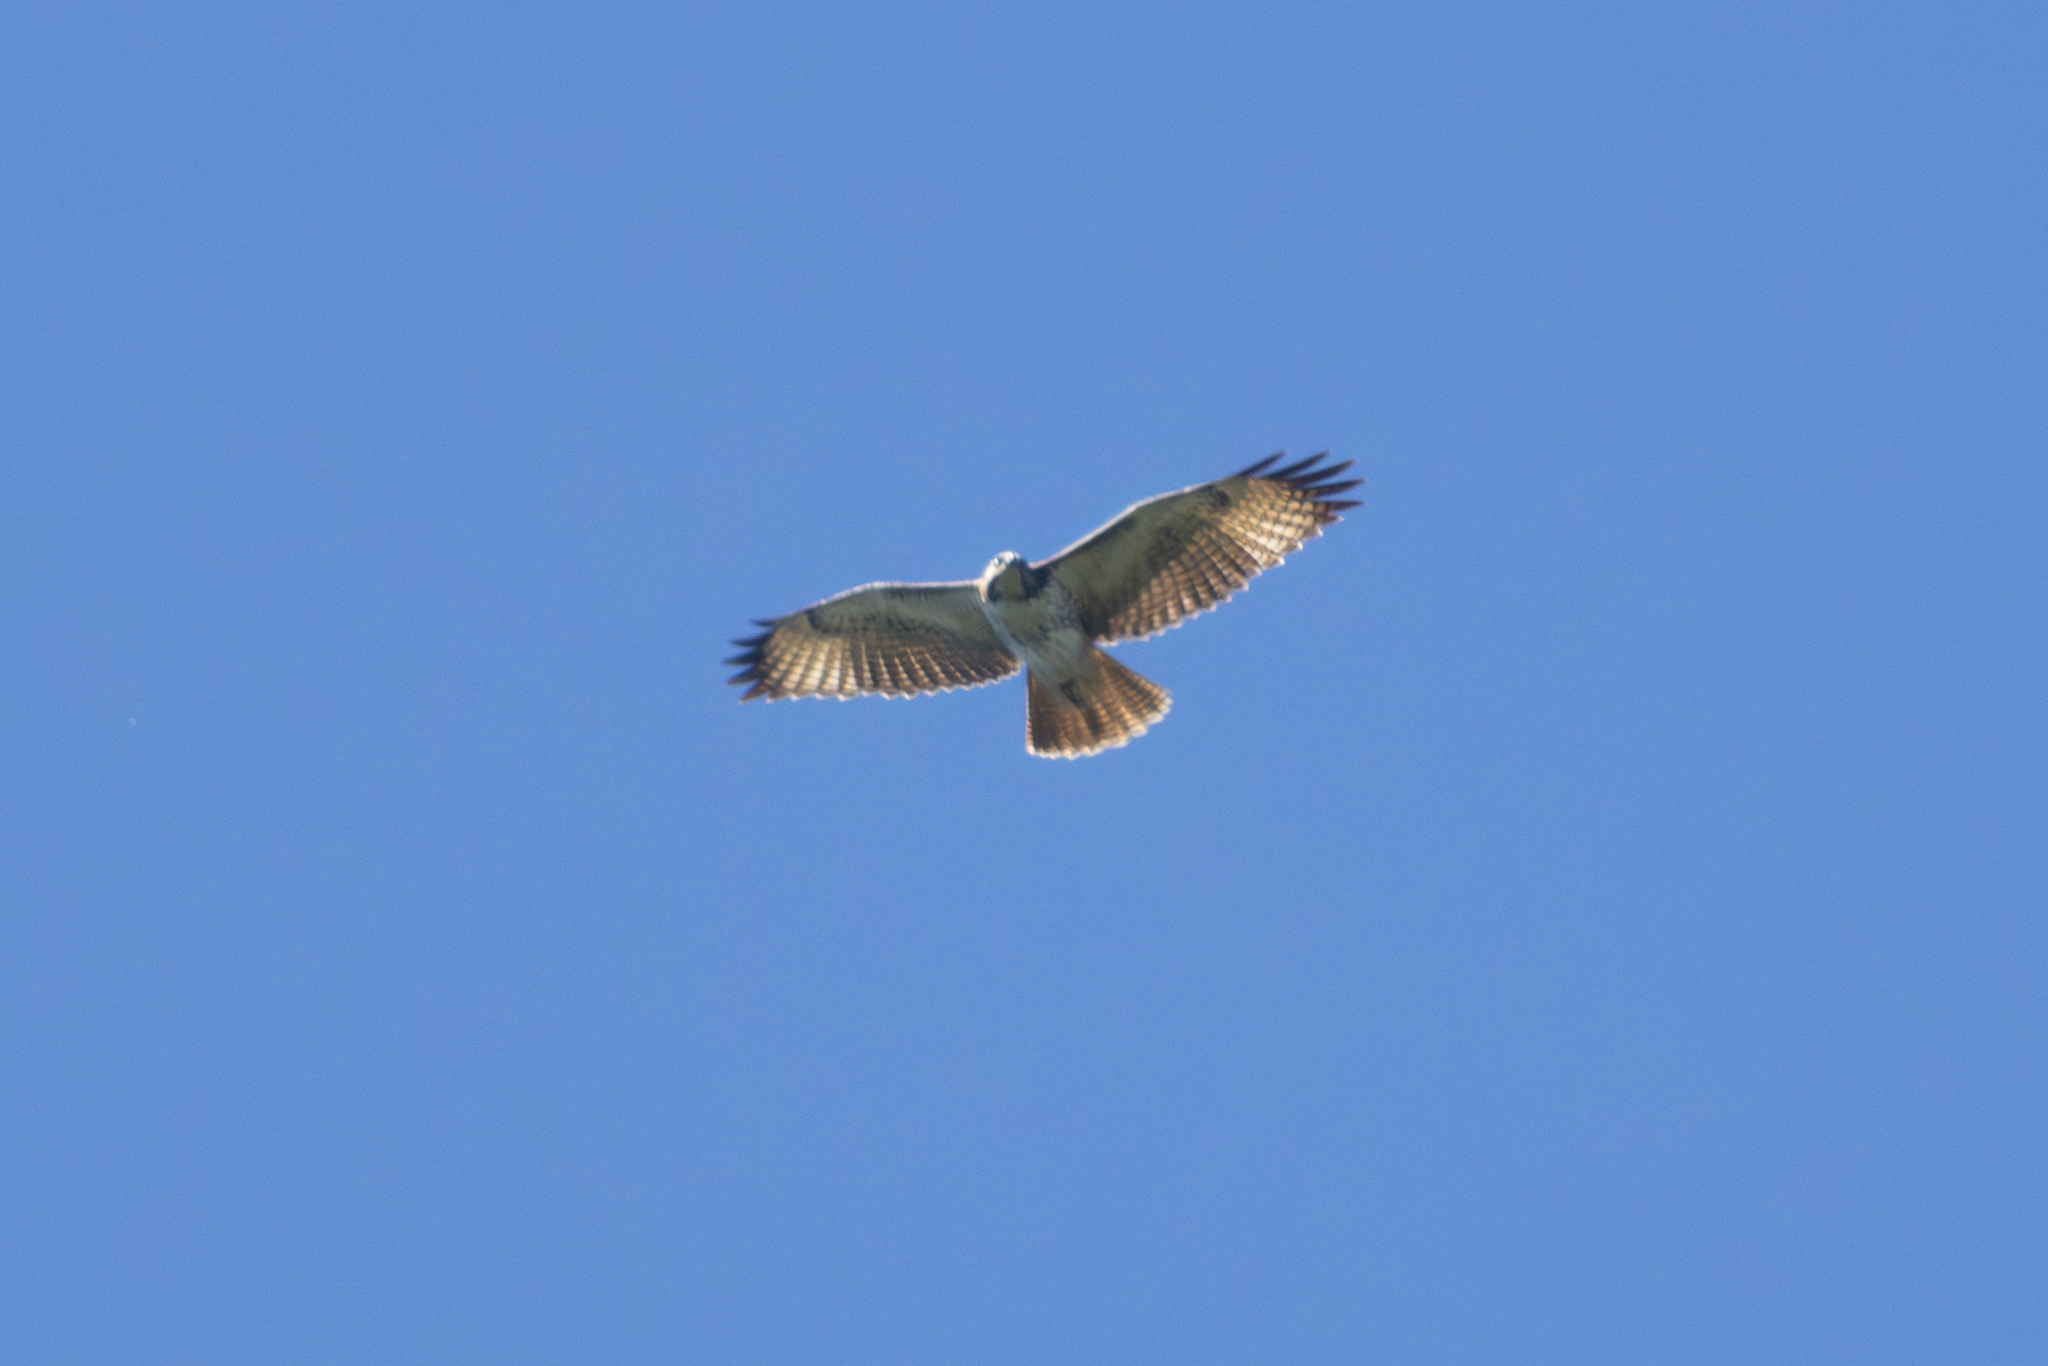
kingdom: Animalia
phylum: Chordata
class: Aves
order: Accipitriformes
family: Accipitridae
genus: Buteo
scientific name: Buteo jamaicensis
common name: Red-tailed hawk
